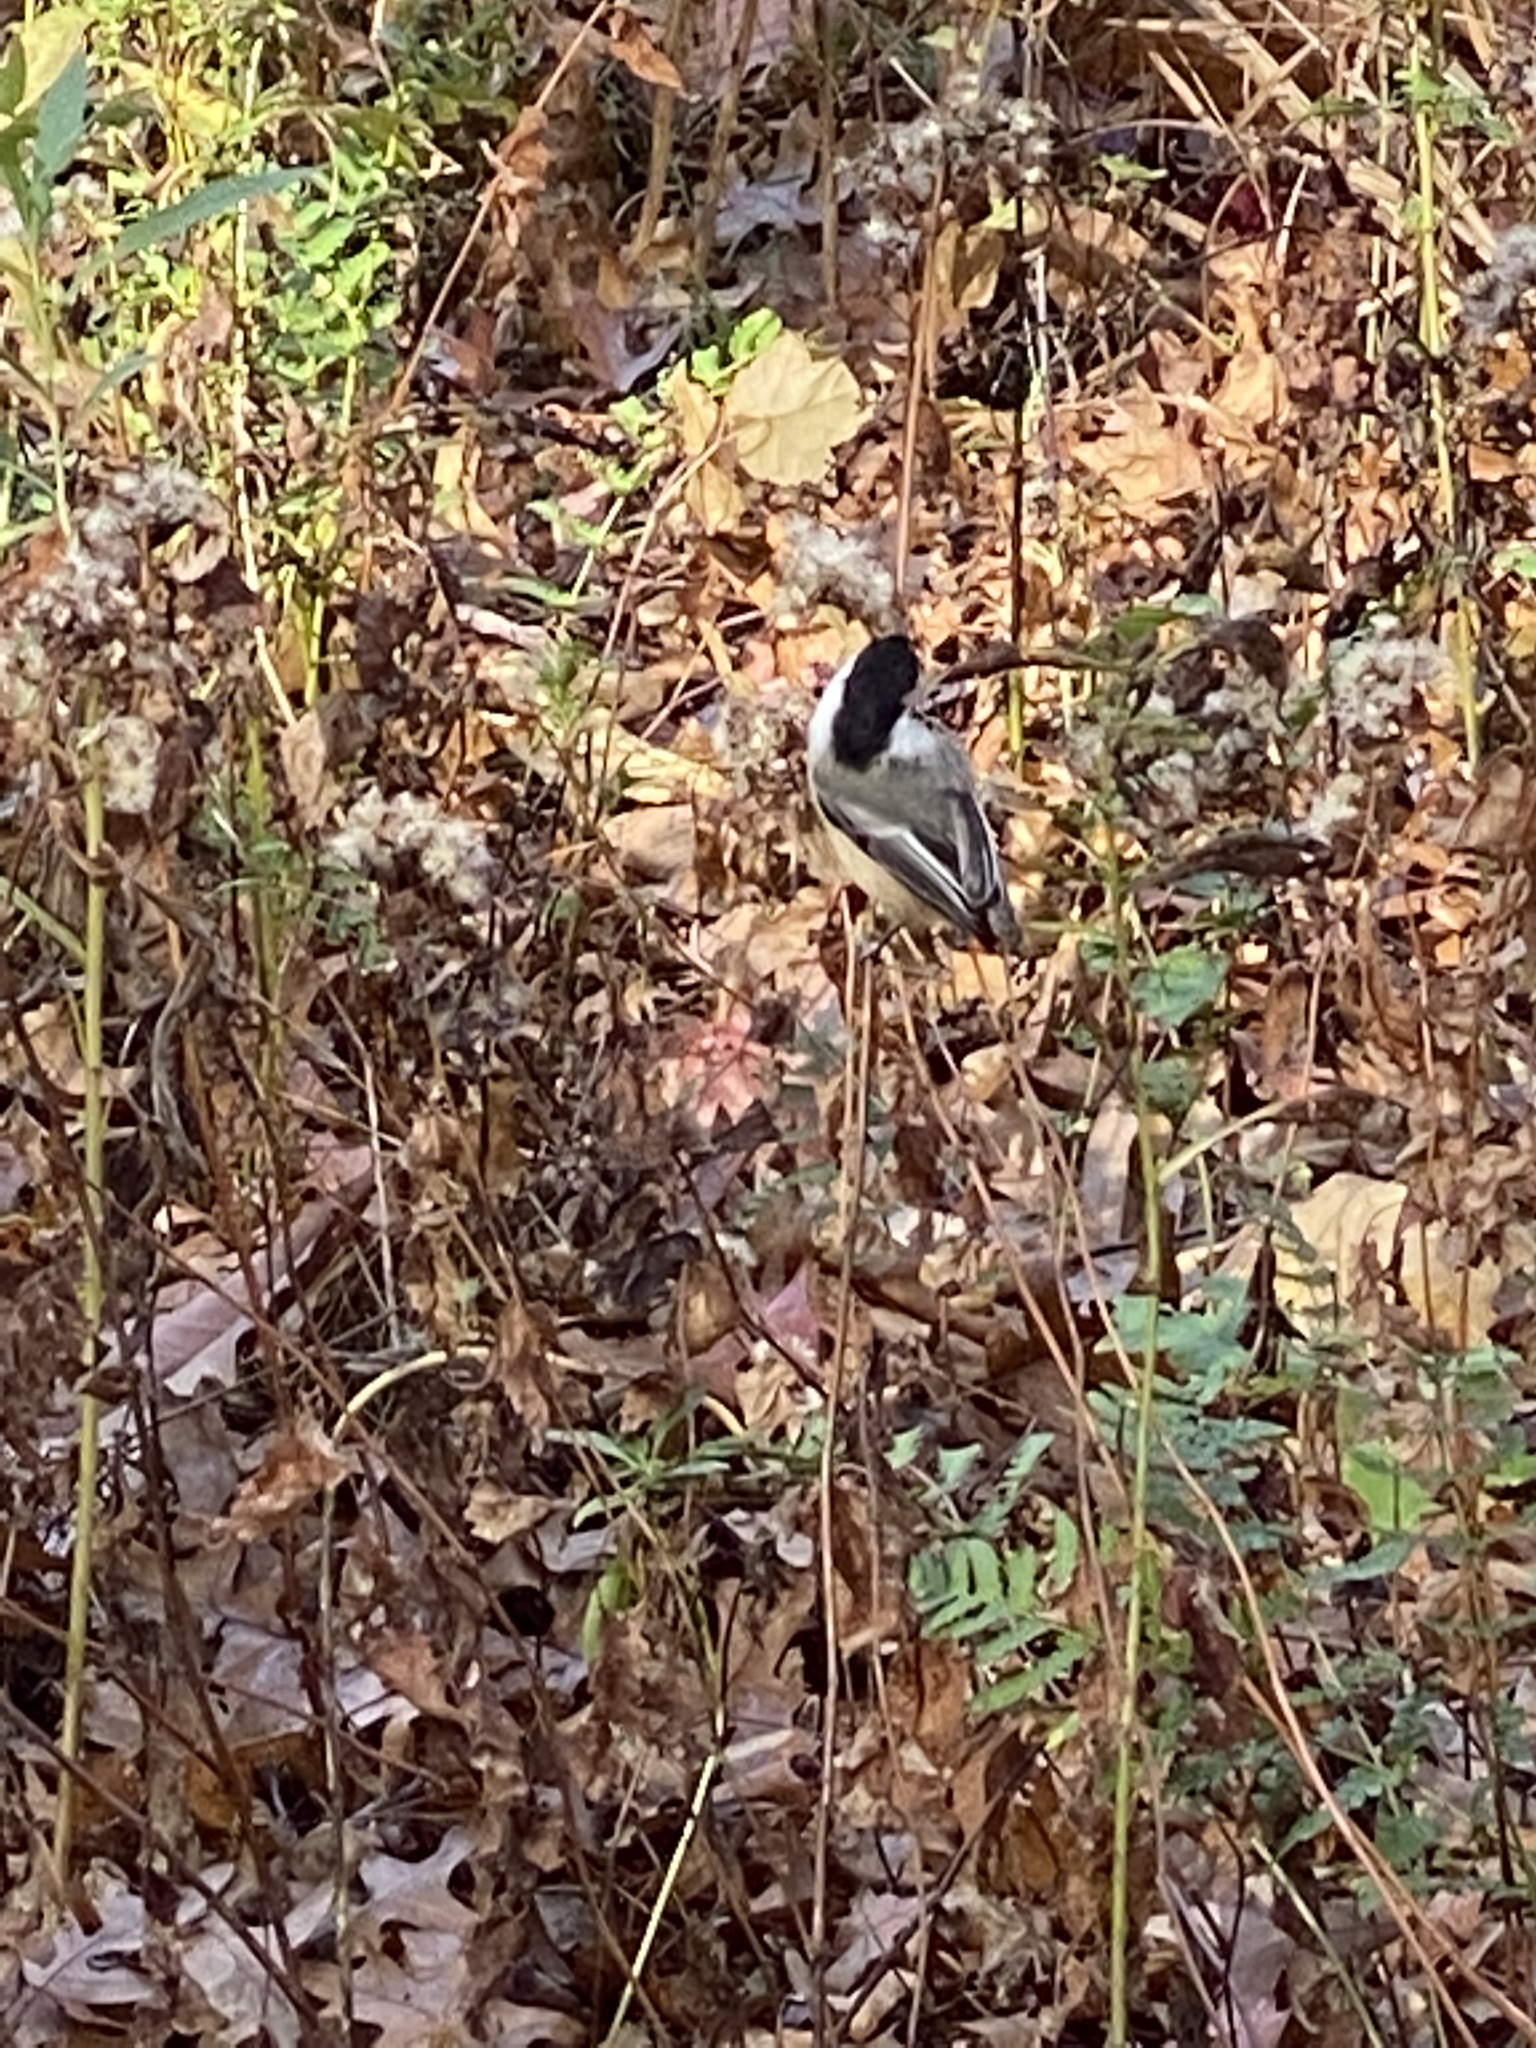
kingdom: Animalia
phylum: Chordata
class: Aves
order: Passeriformes
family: Paridae
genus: Poecile
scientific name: Poecile atricapillus
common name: Black-capped chickadee
